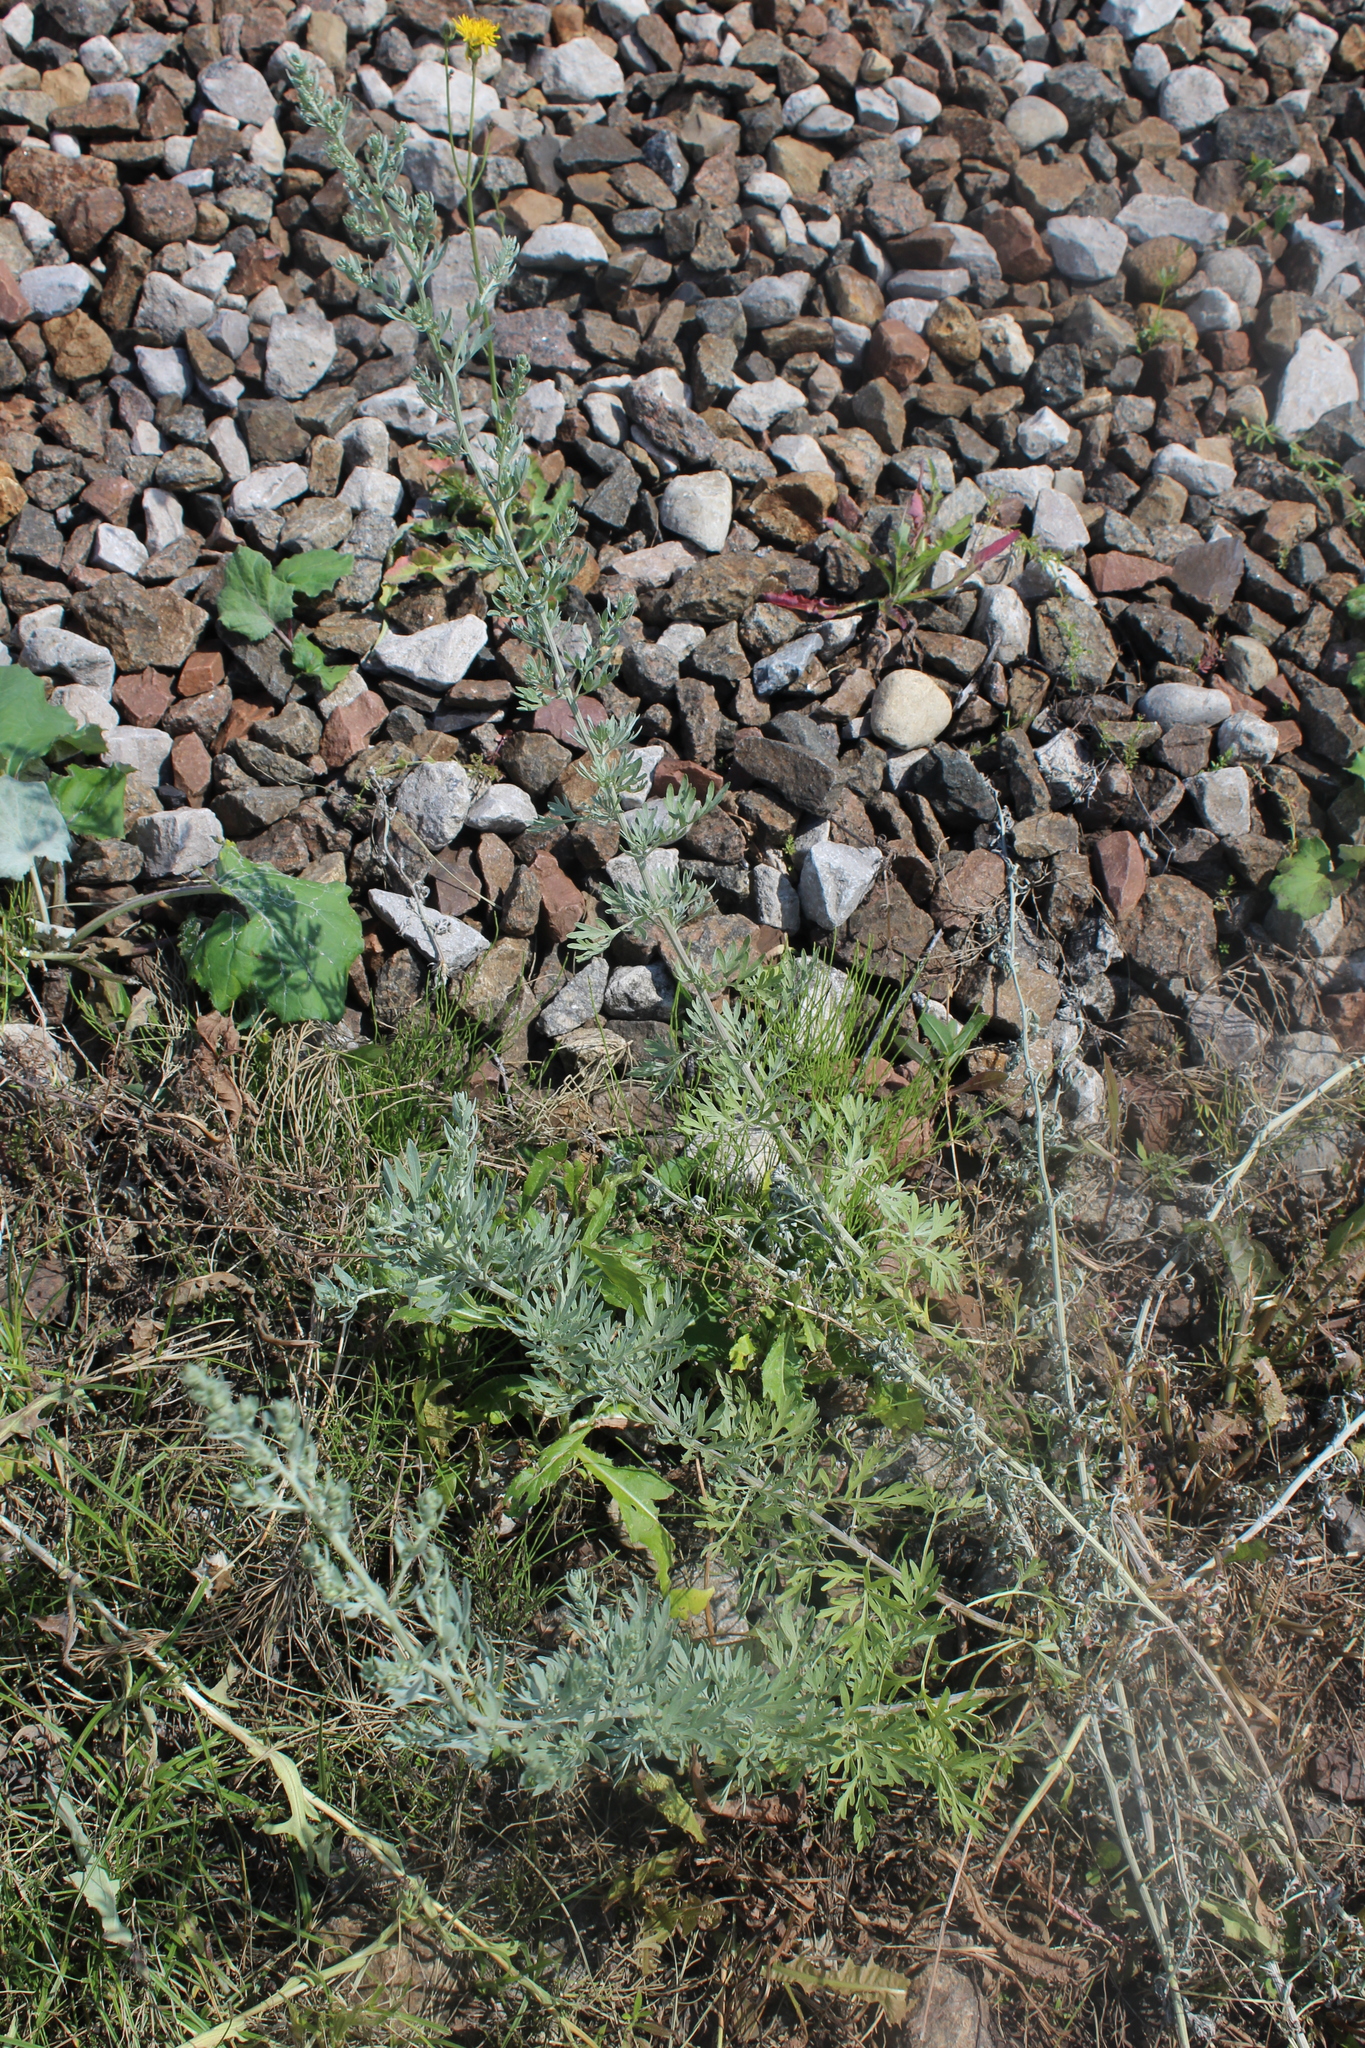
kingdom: Plantae
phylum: Tracheophyta
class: Magnoliopsida
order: Asterales
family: Asteraceae
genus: Artemisia
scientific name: Artemisia absinthium
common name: Wormwood
